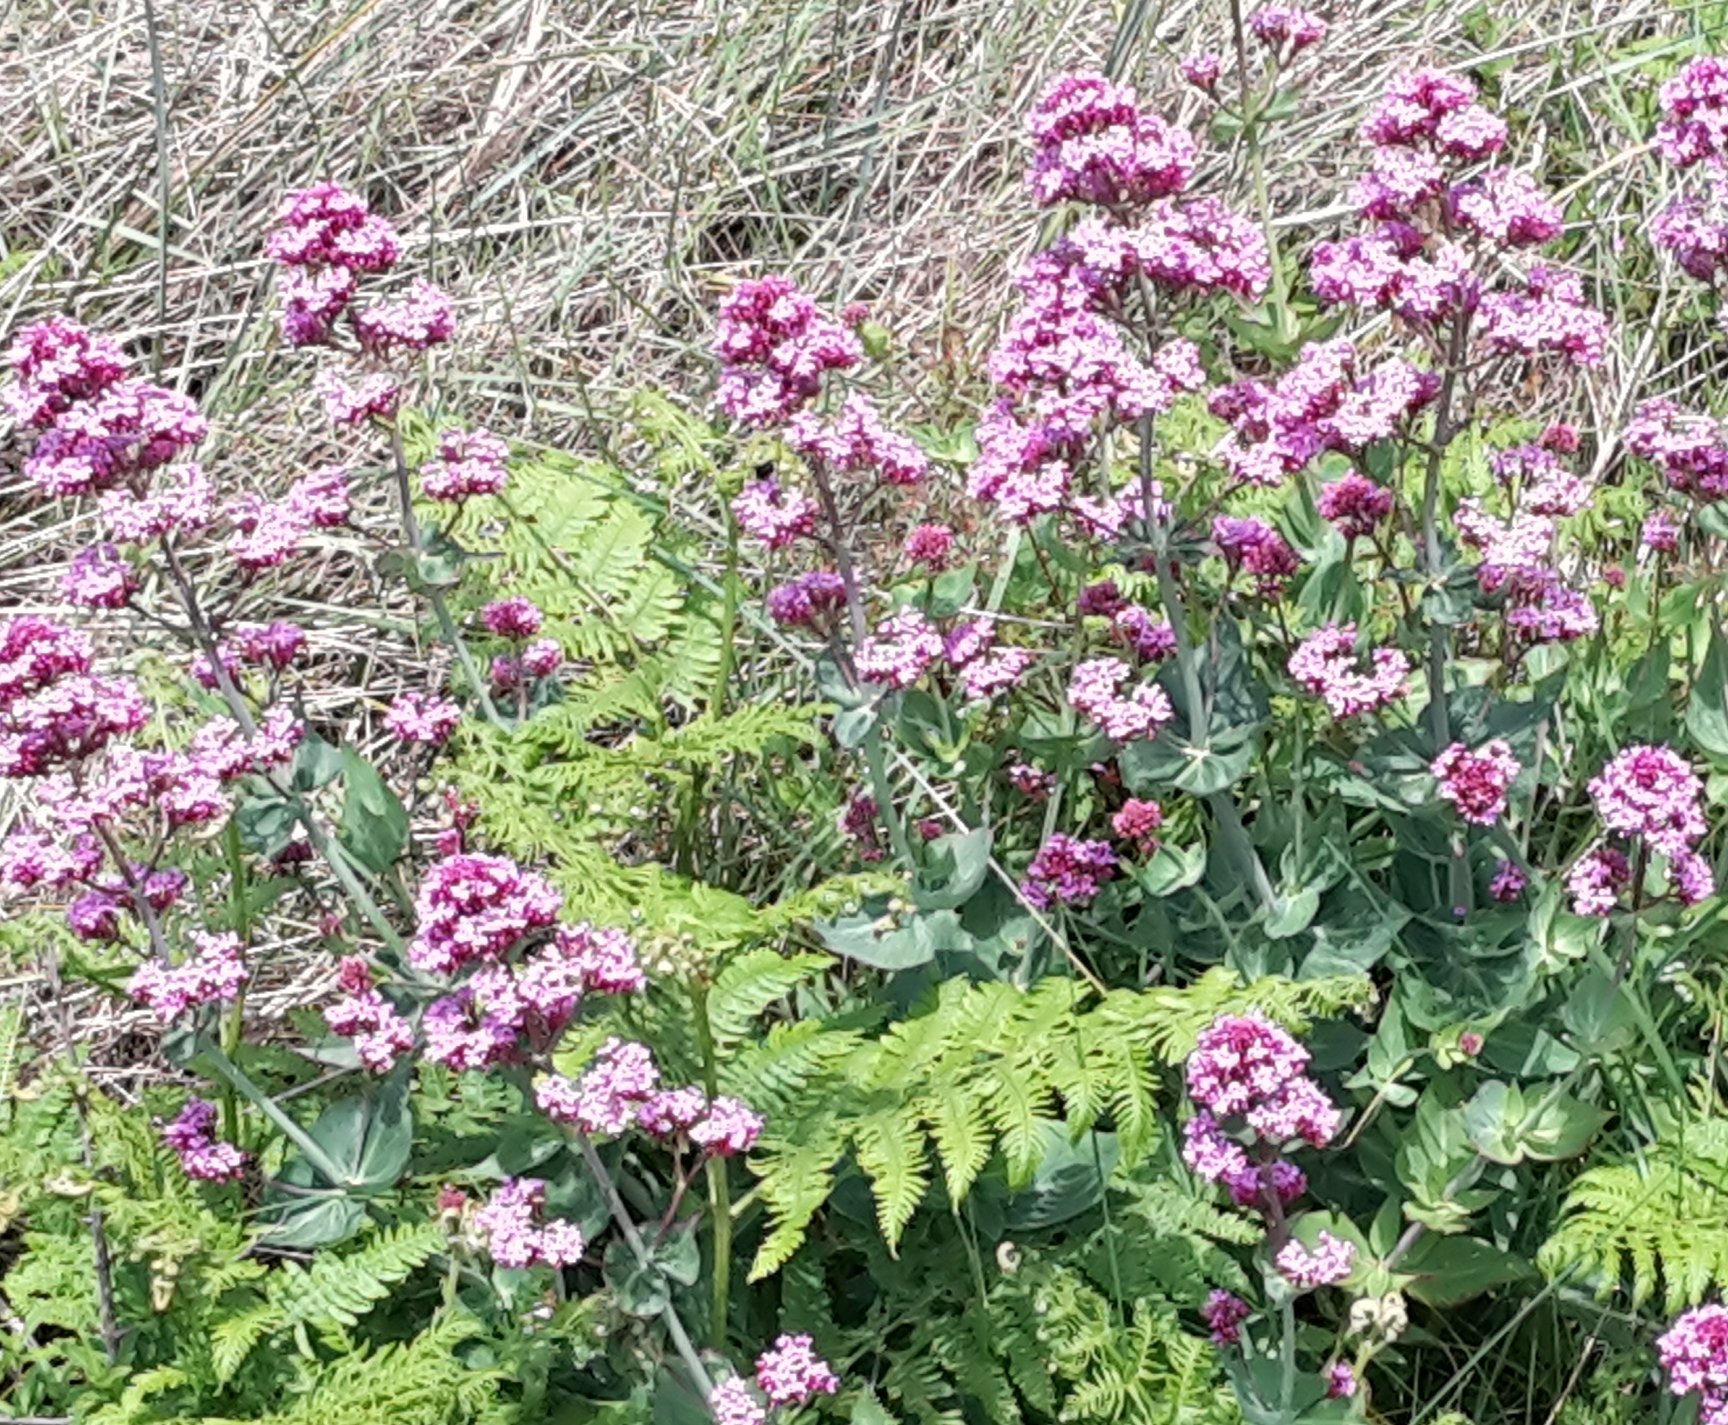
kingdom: Plantae
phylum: Tracheophyta
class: Magnoliopsida
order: Dipsacales
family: Caprifoliaceae
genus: Centranthus
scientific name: Centranthus ruber
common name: Red valerian
